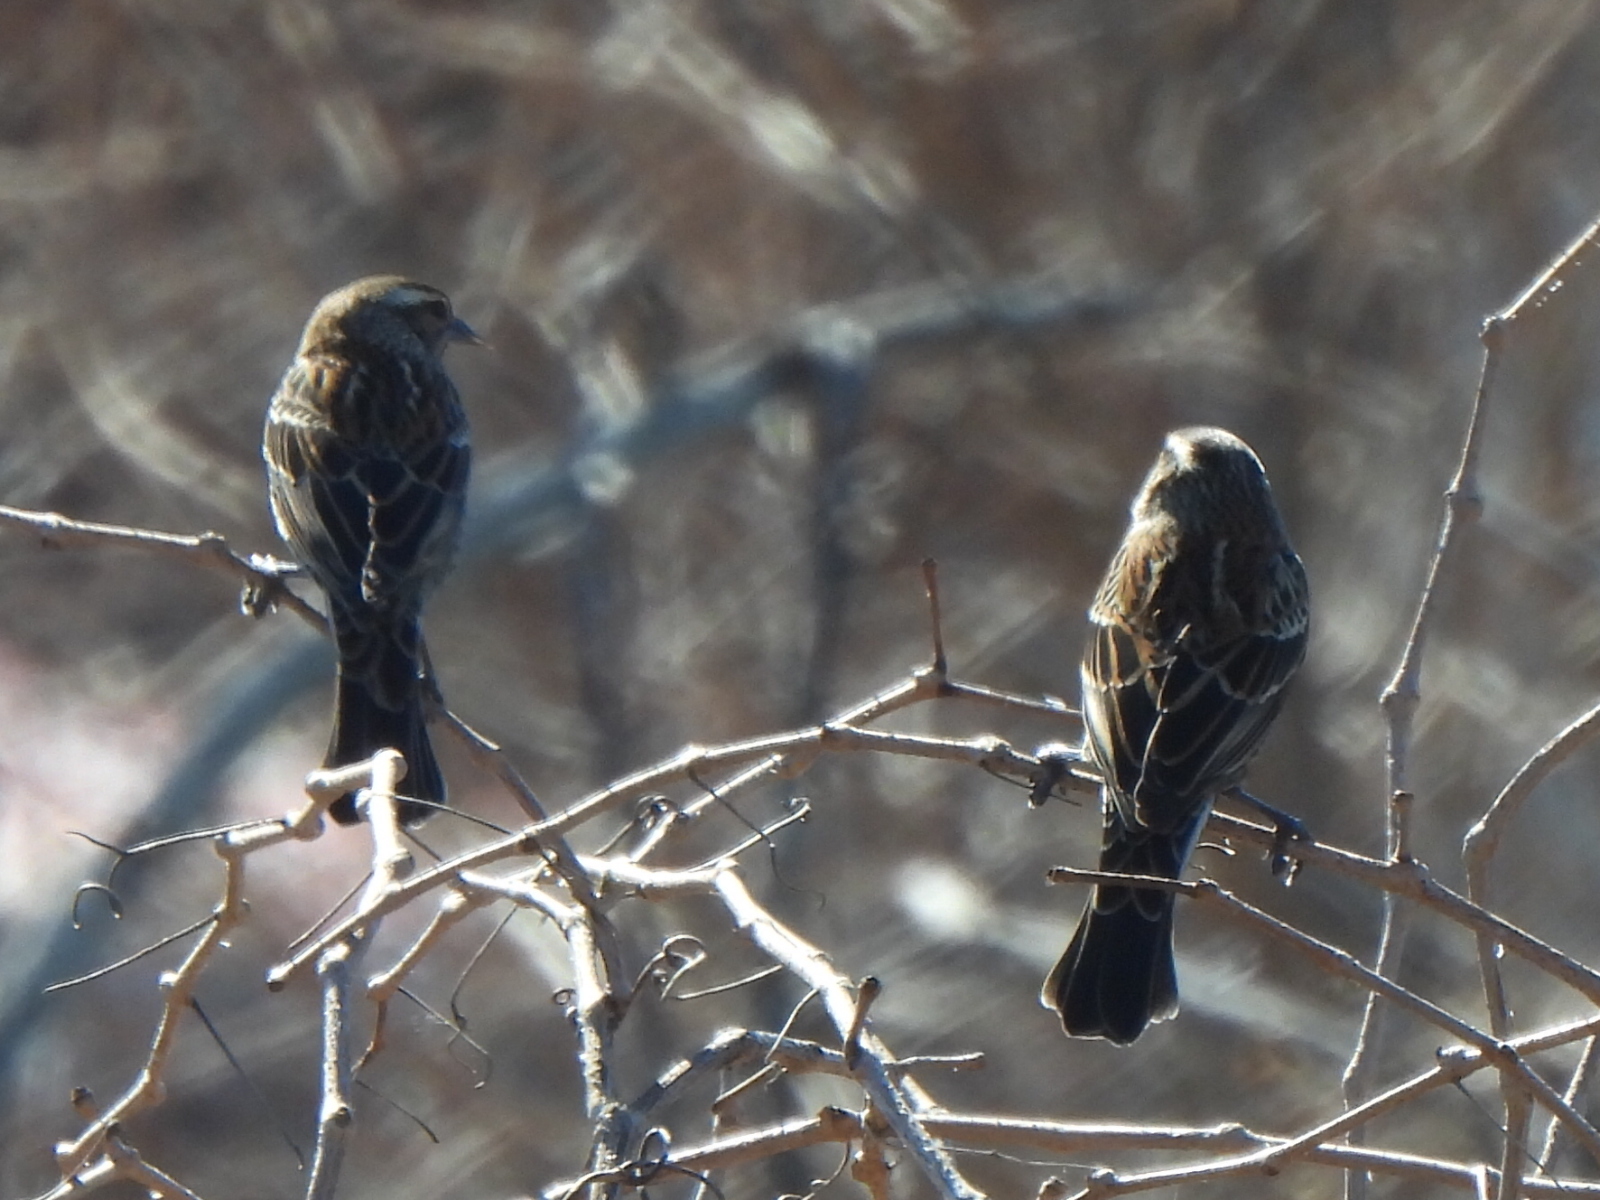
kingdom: Animalia
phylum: Chordata
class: Aves
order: Passeriformes
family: Icteridae
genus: Agelaius
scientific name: Agelaius phoeniceus
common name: Red-winged blackbird
